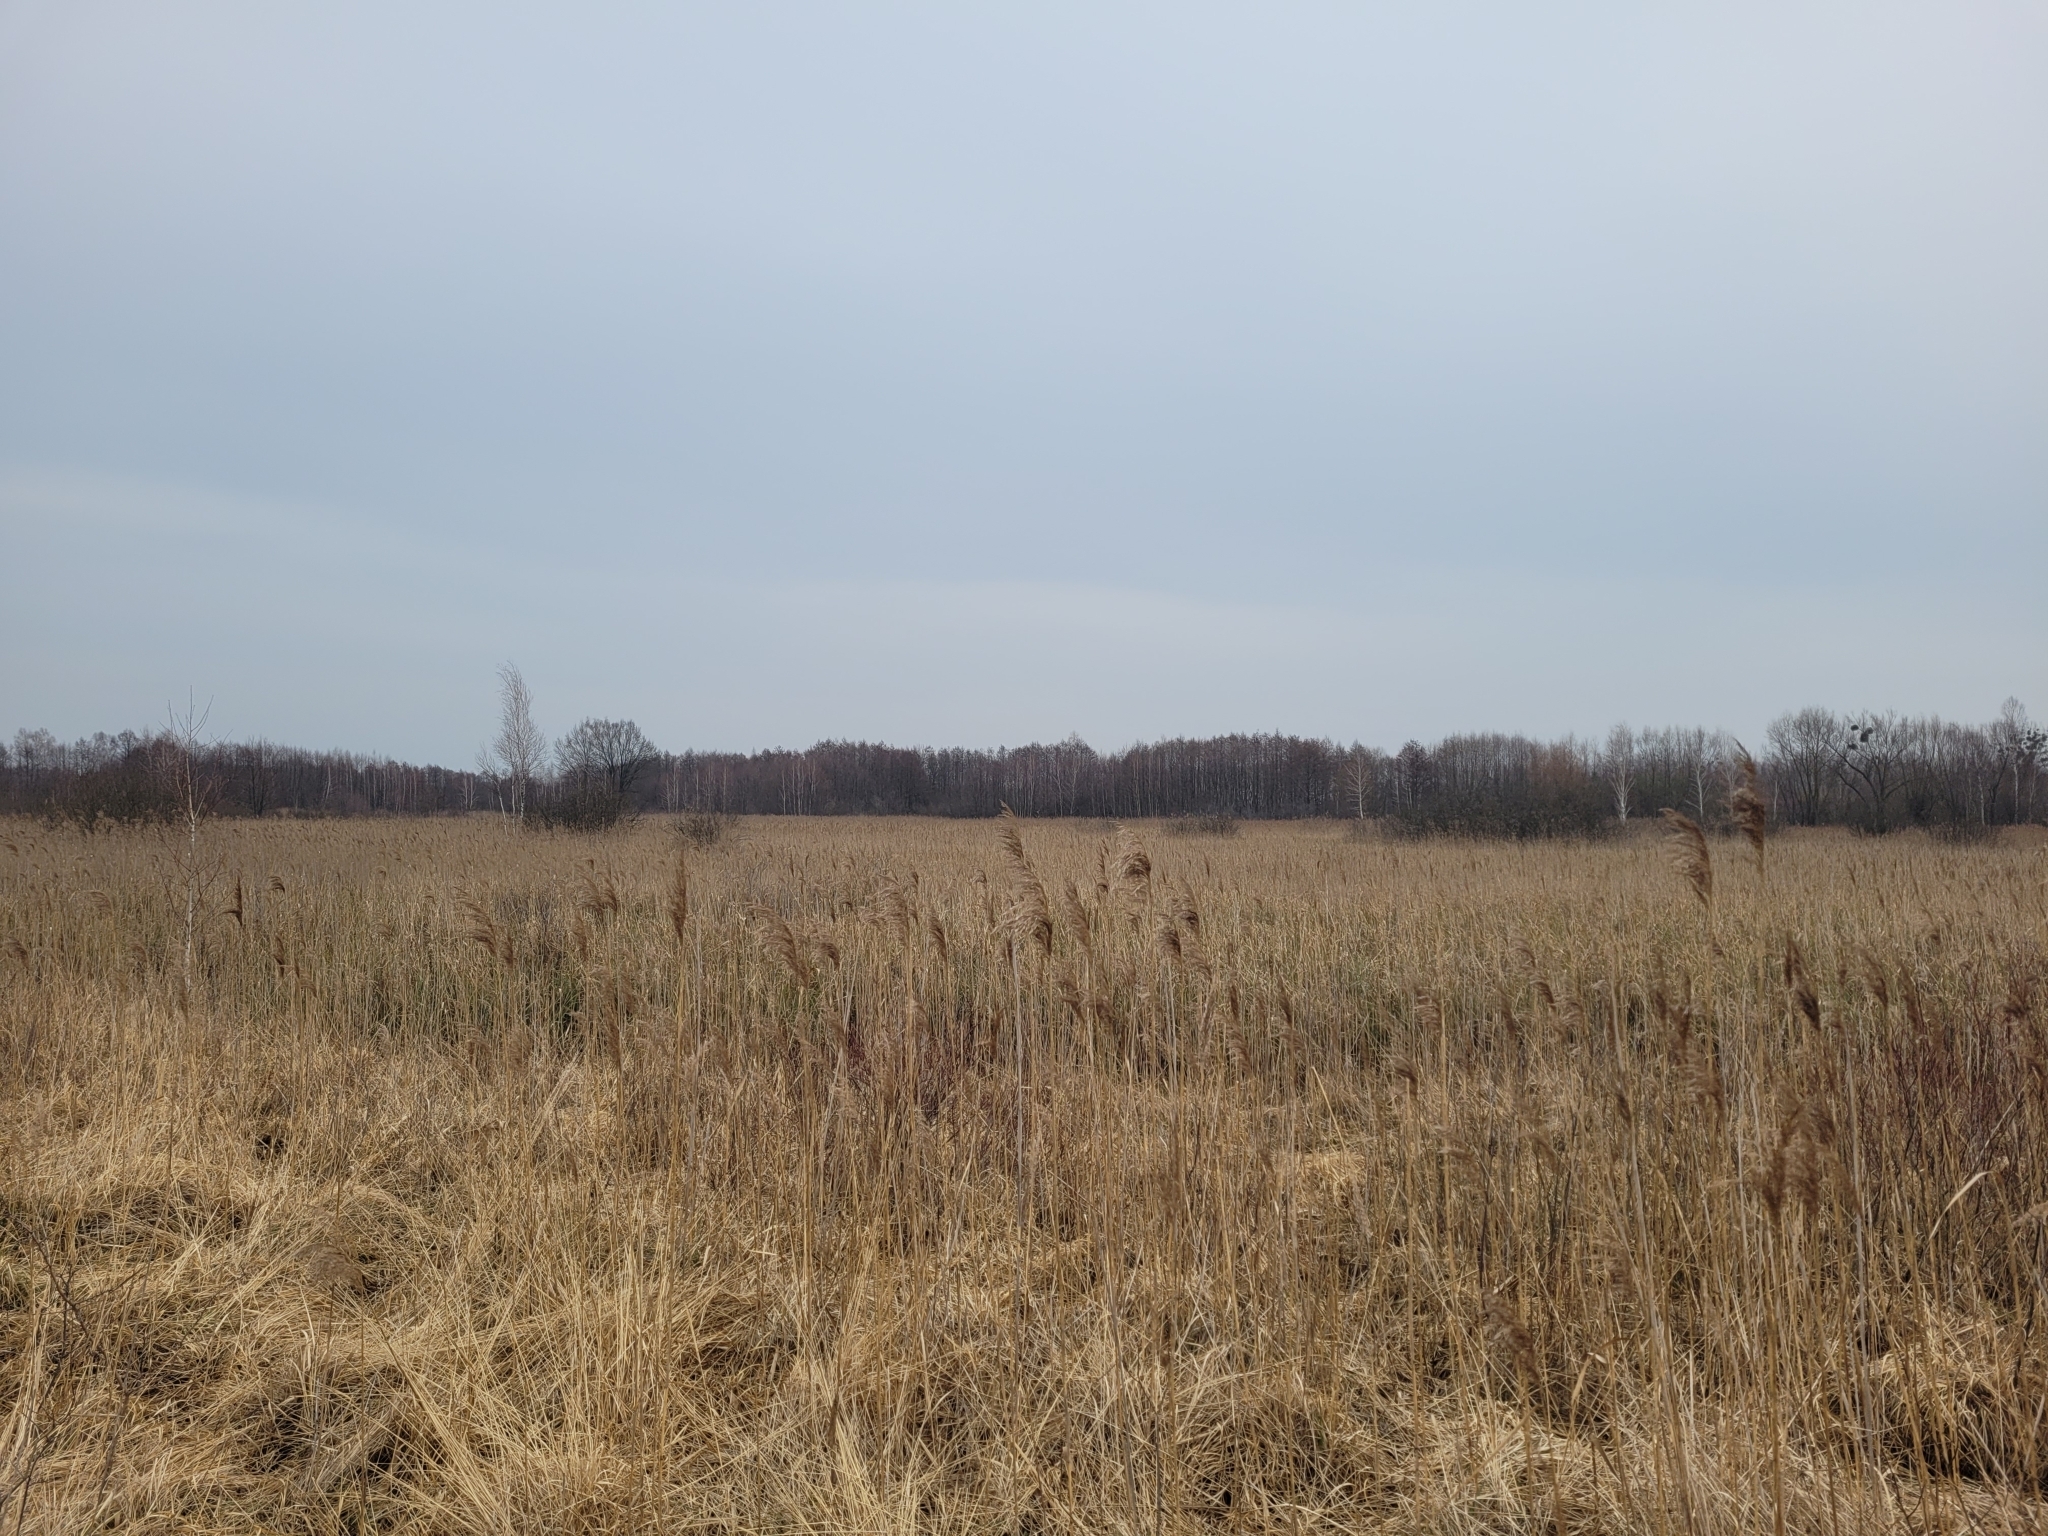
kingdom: Plantae
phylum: Tracheophyta
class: Liliopsida
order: Poales
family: Poaceae
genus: Phragmites
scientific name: Phragmites australis
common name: Common reed
